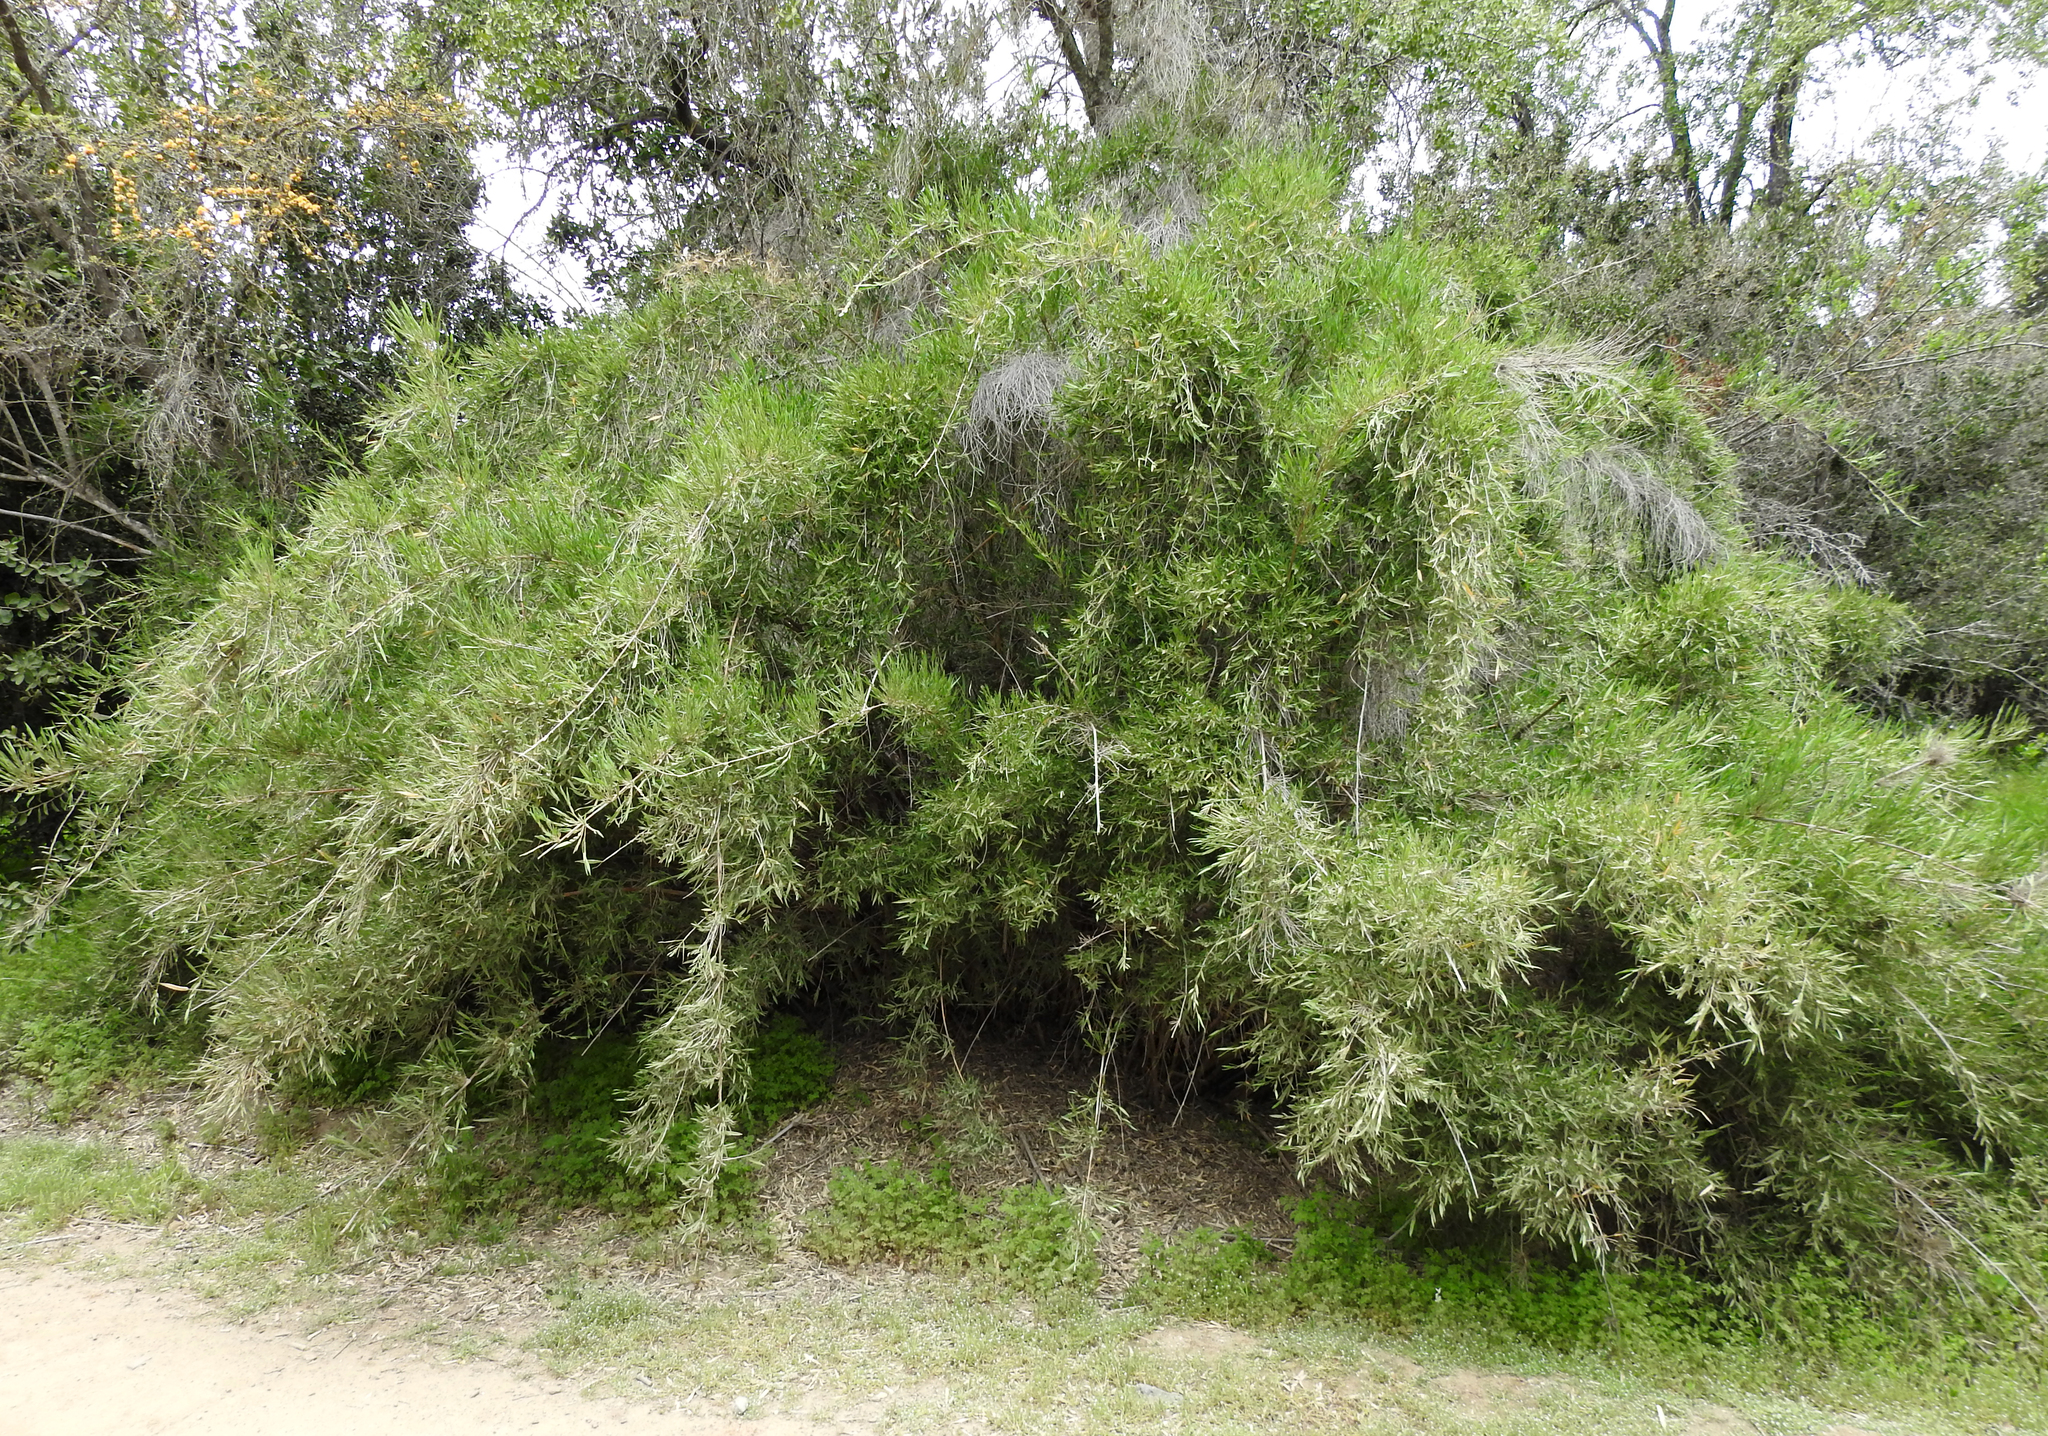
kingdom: Plantae
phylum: Tracheophyta
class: Liliopsida
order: Poales
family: Poaceae
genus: Chusquea
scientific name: Chusquea quila
